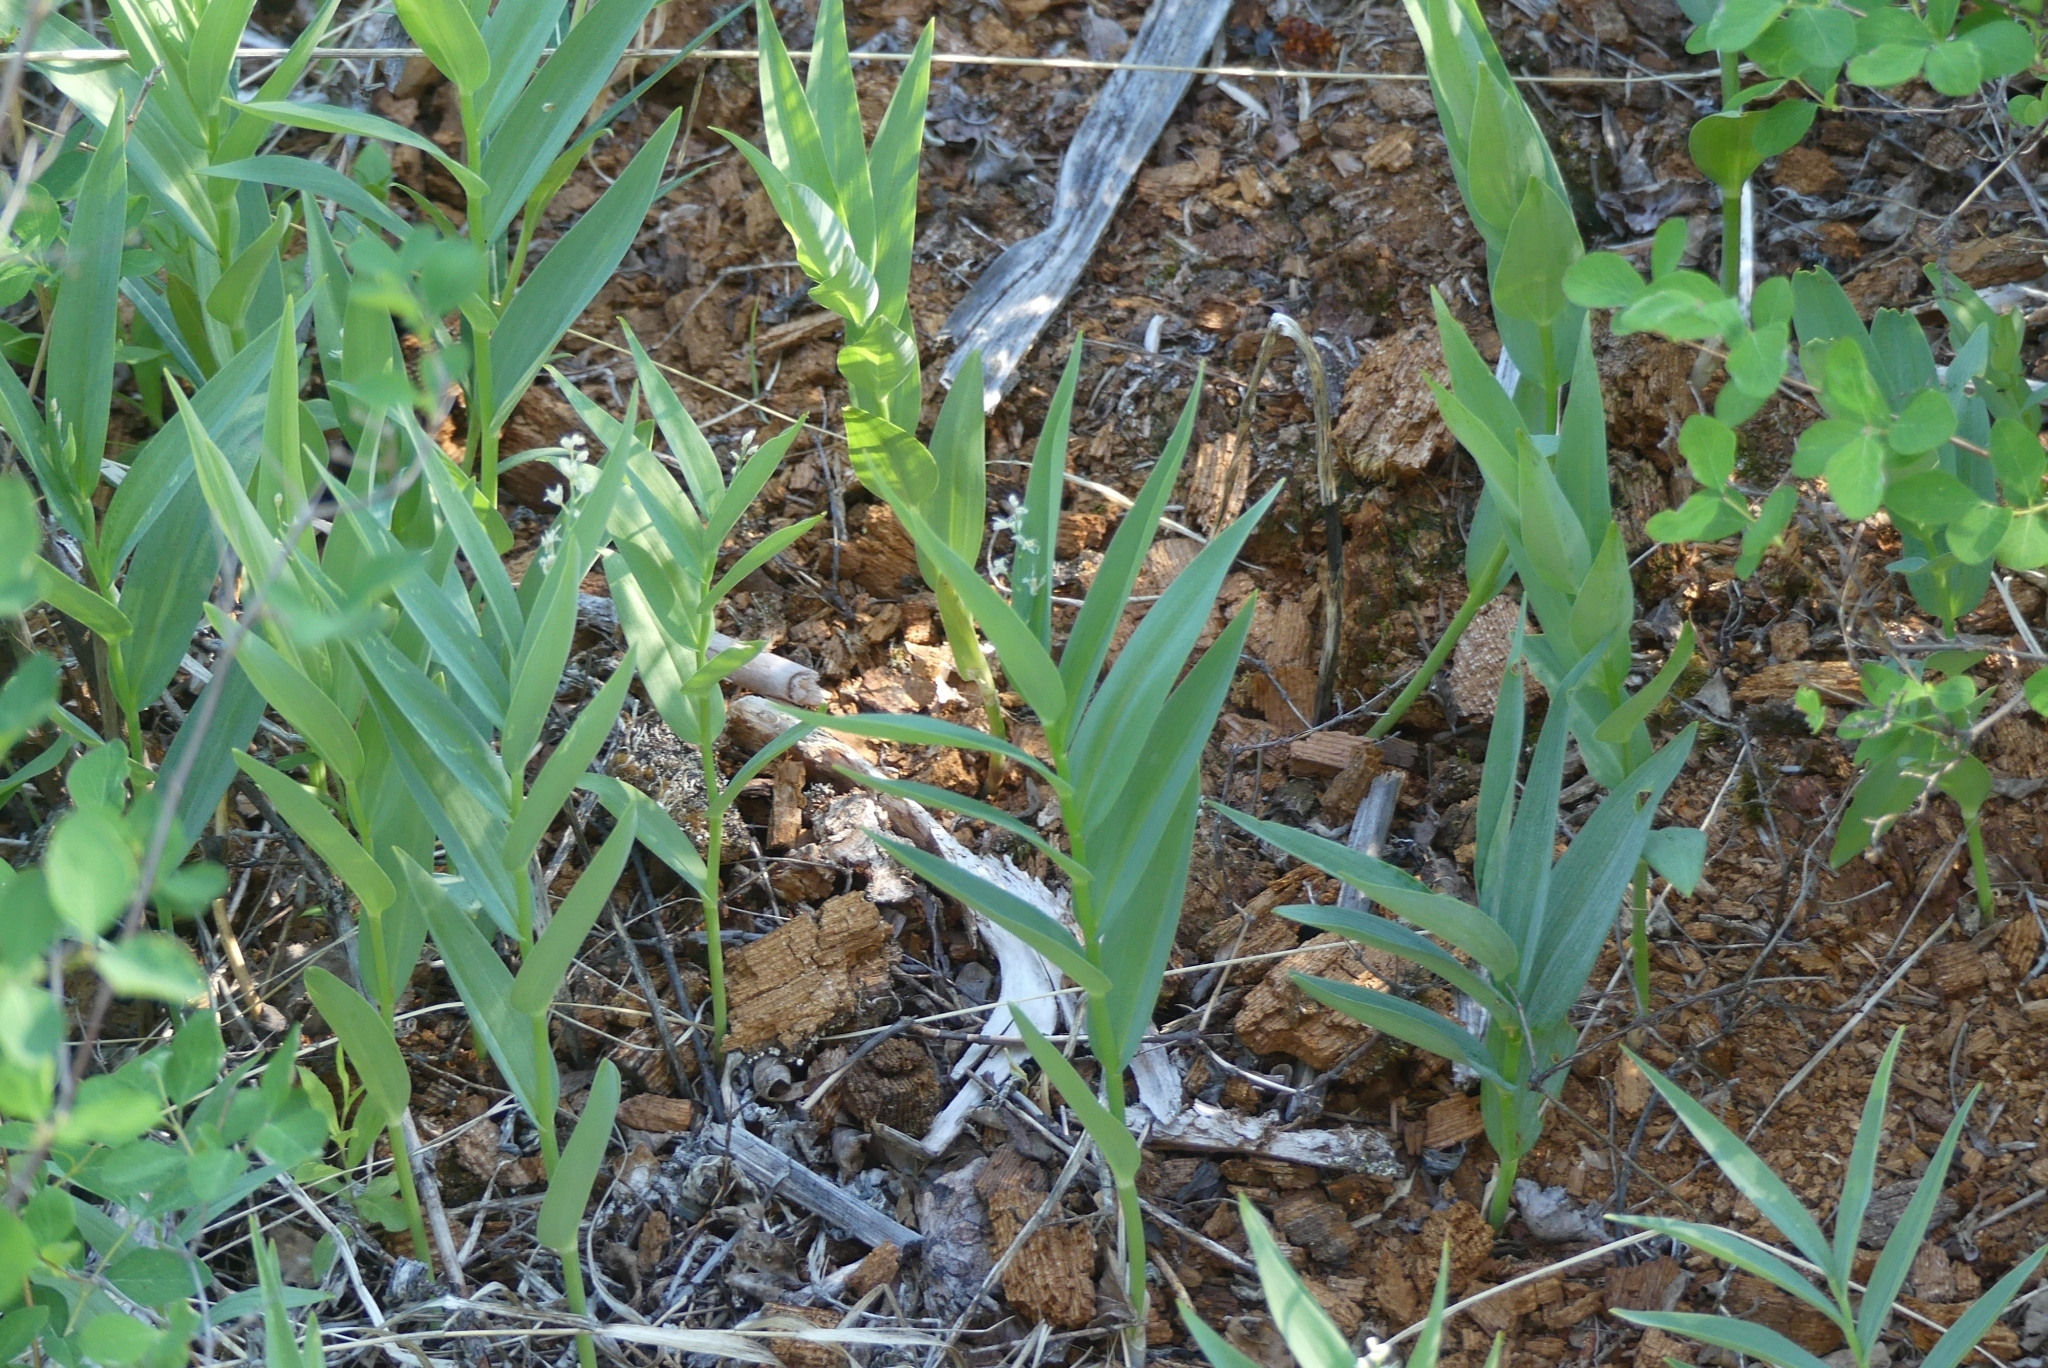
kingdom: Plantae
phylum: Tracheophyta
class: Liliopsida
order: Asparagales
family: Asparagaceae
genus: Maianthemum
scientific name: Maianthemum stellatum
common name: Little false solomon's seal
